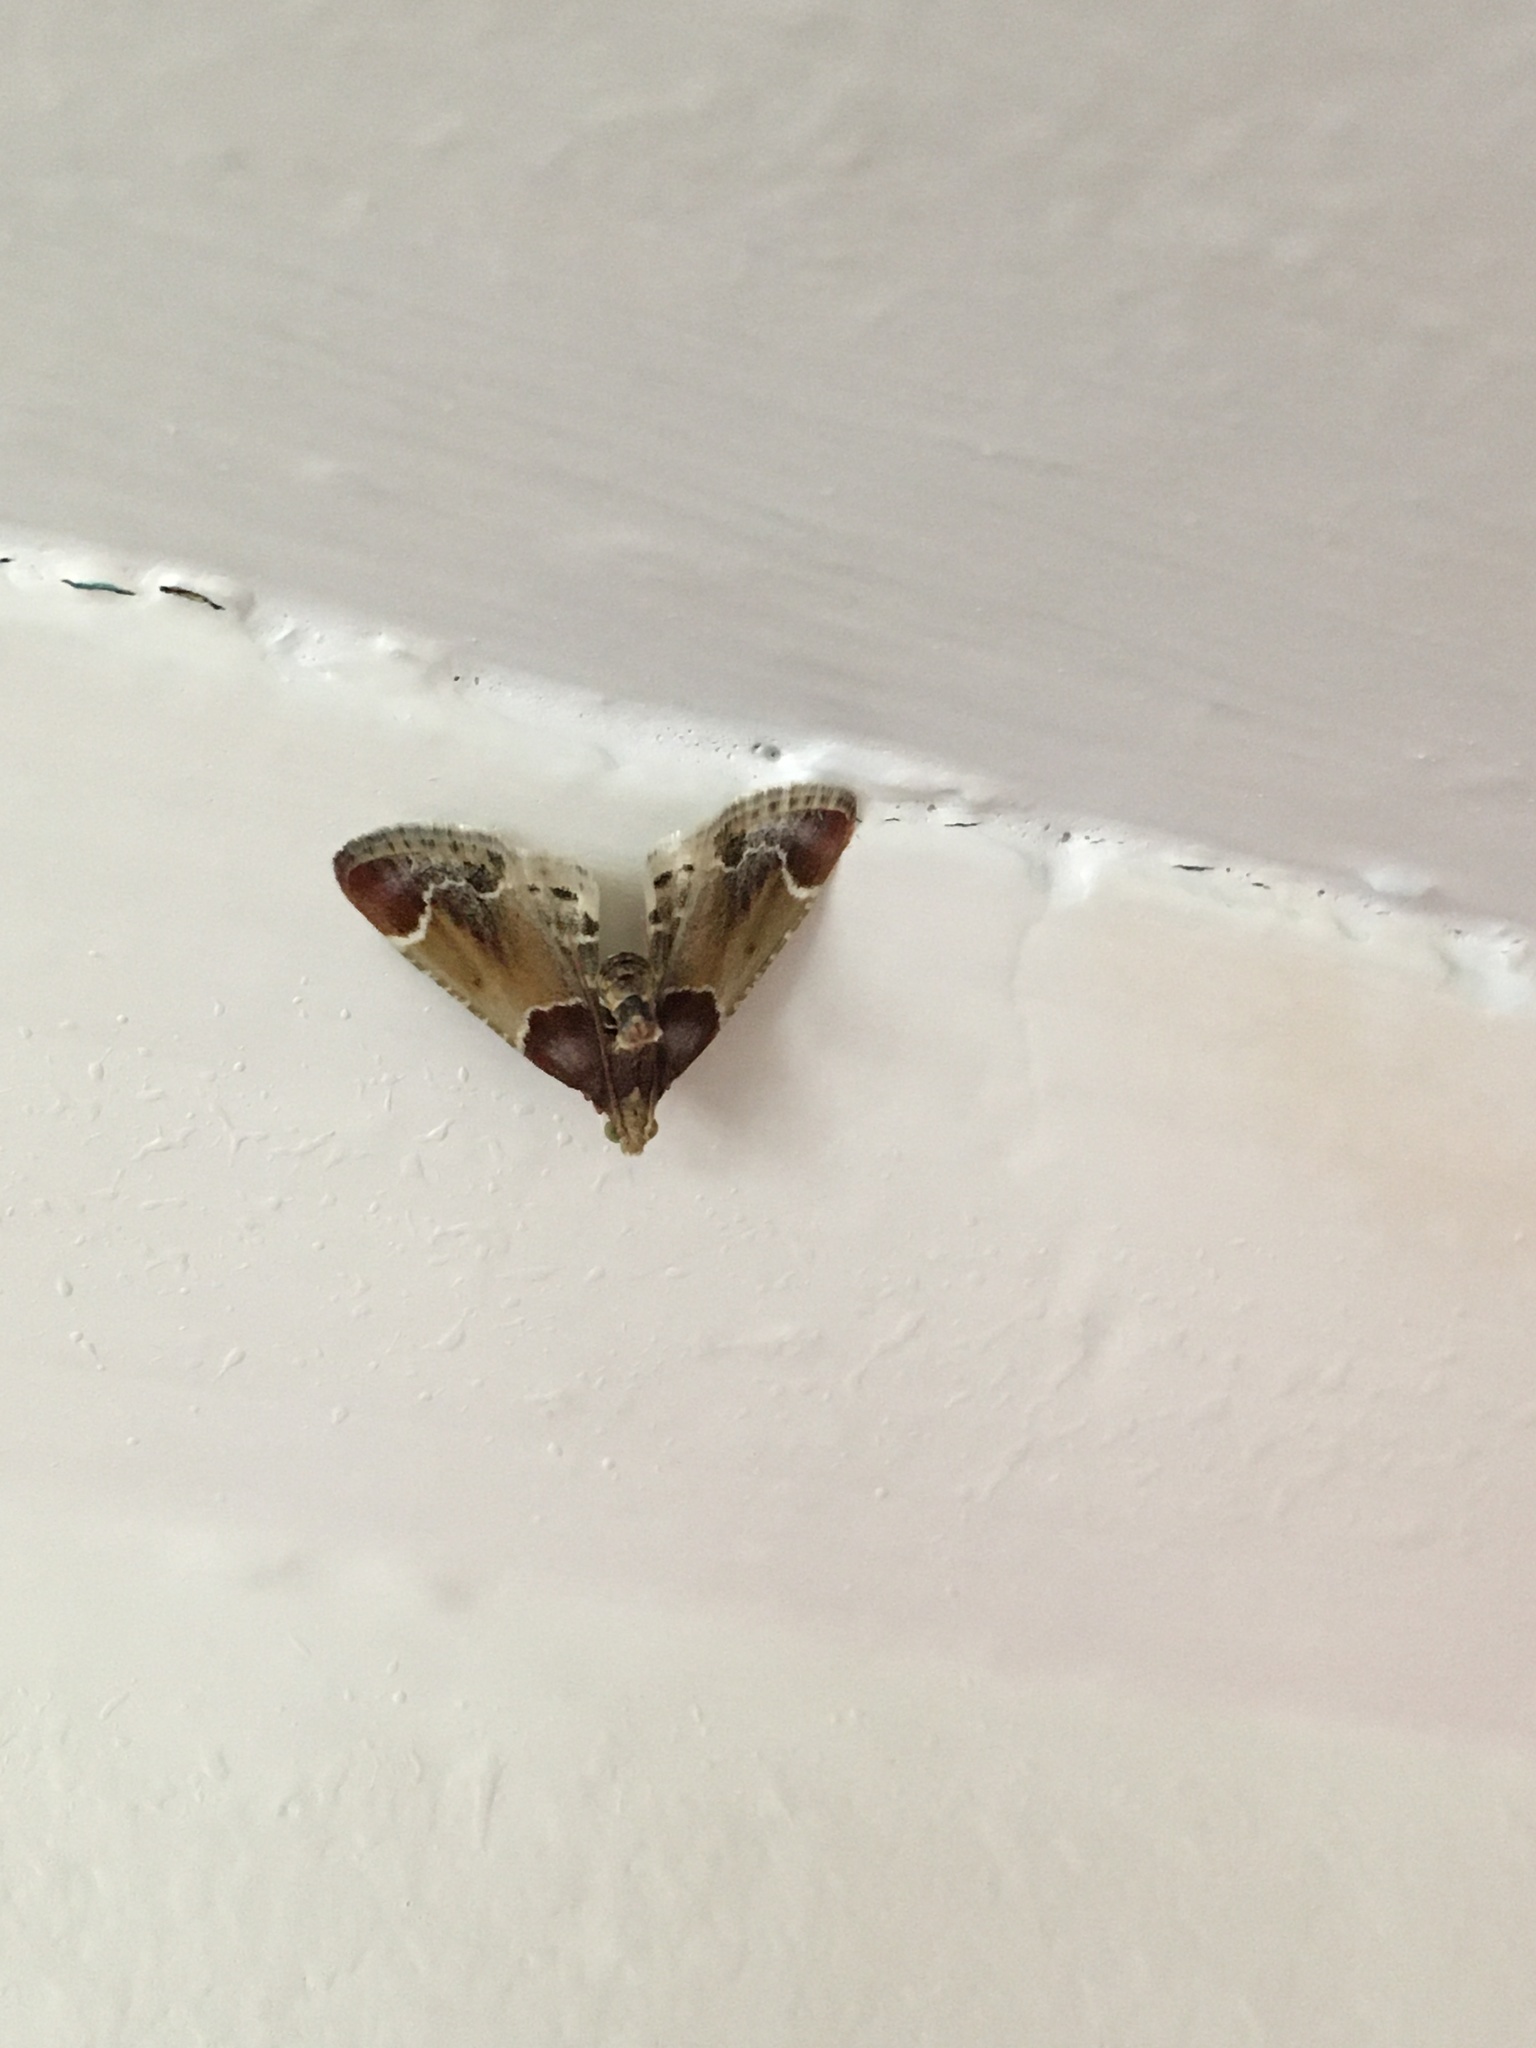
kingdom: Animalia
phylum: Arthropoda
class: Insecta
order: Lepidoptera
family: Pyralidae
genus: Pyralis
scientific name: Pyralis farinalis
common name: Meal moth
